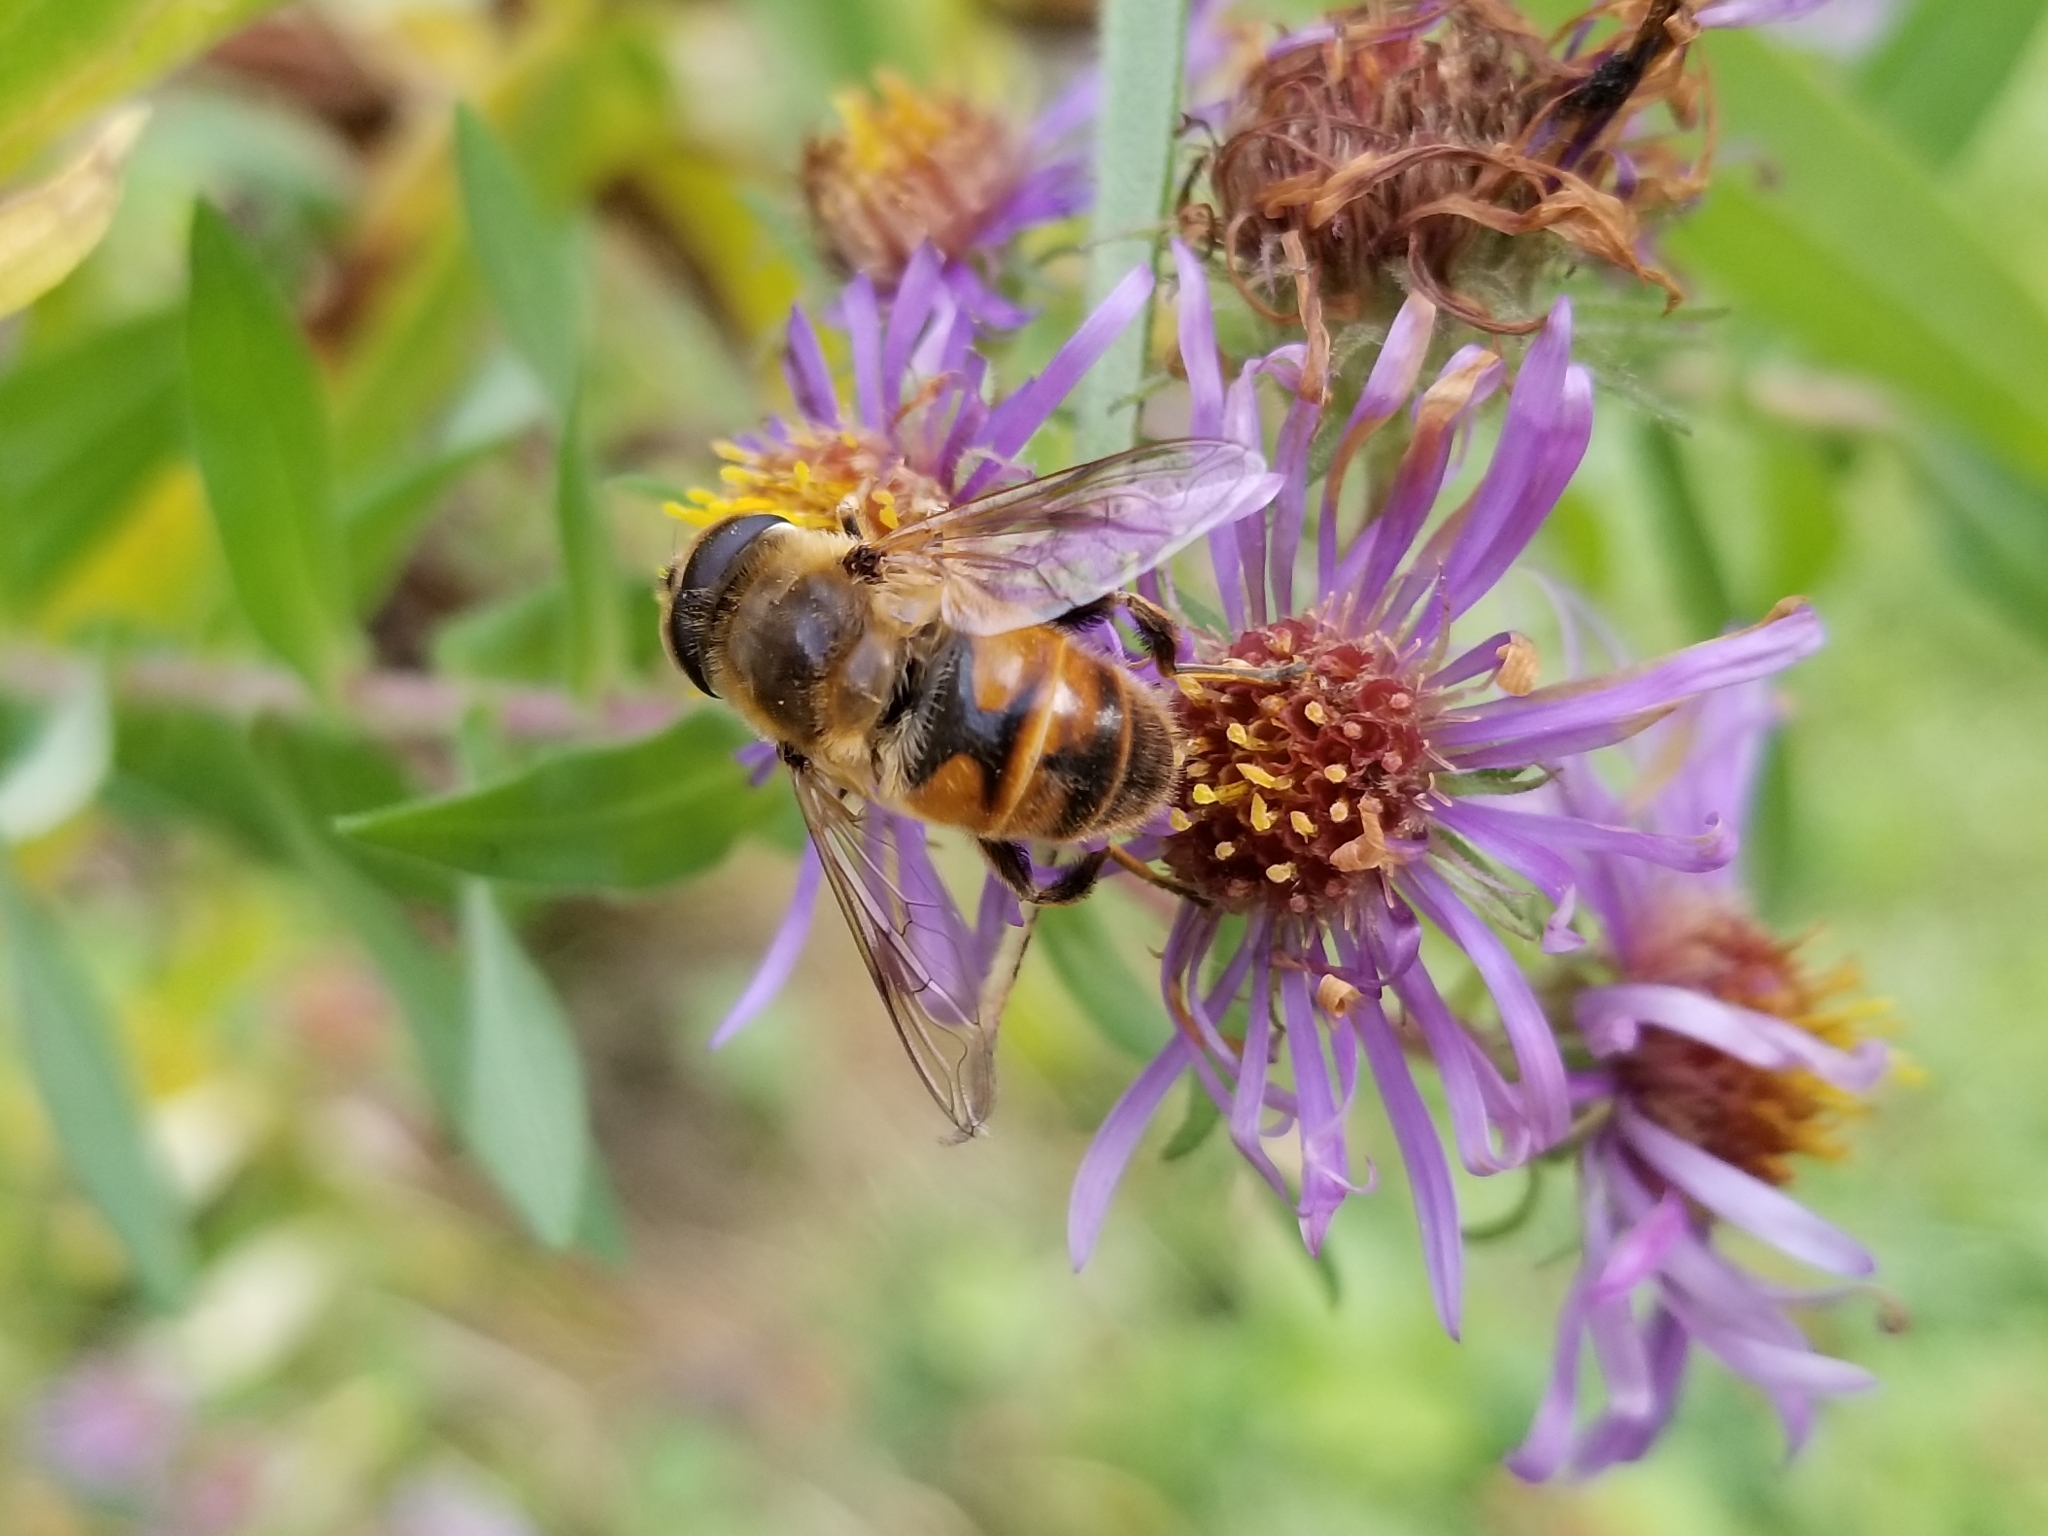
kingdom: Animalia
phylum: Arthropoda
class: Insecta
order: Diptera
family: Syrphidae
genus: Eristalis
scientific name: Eristalis tenax
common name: Drone fly
